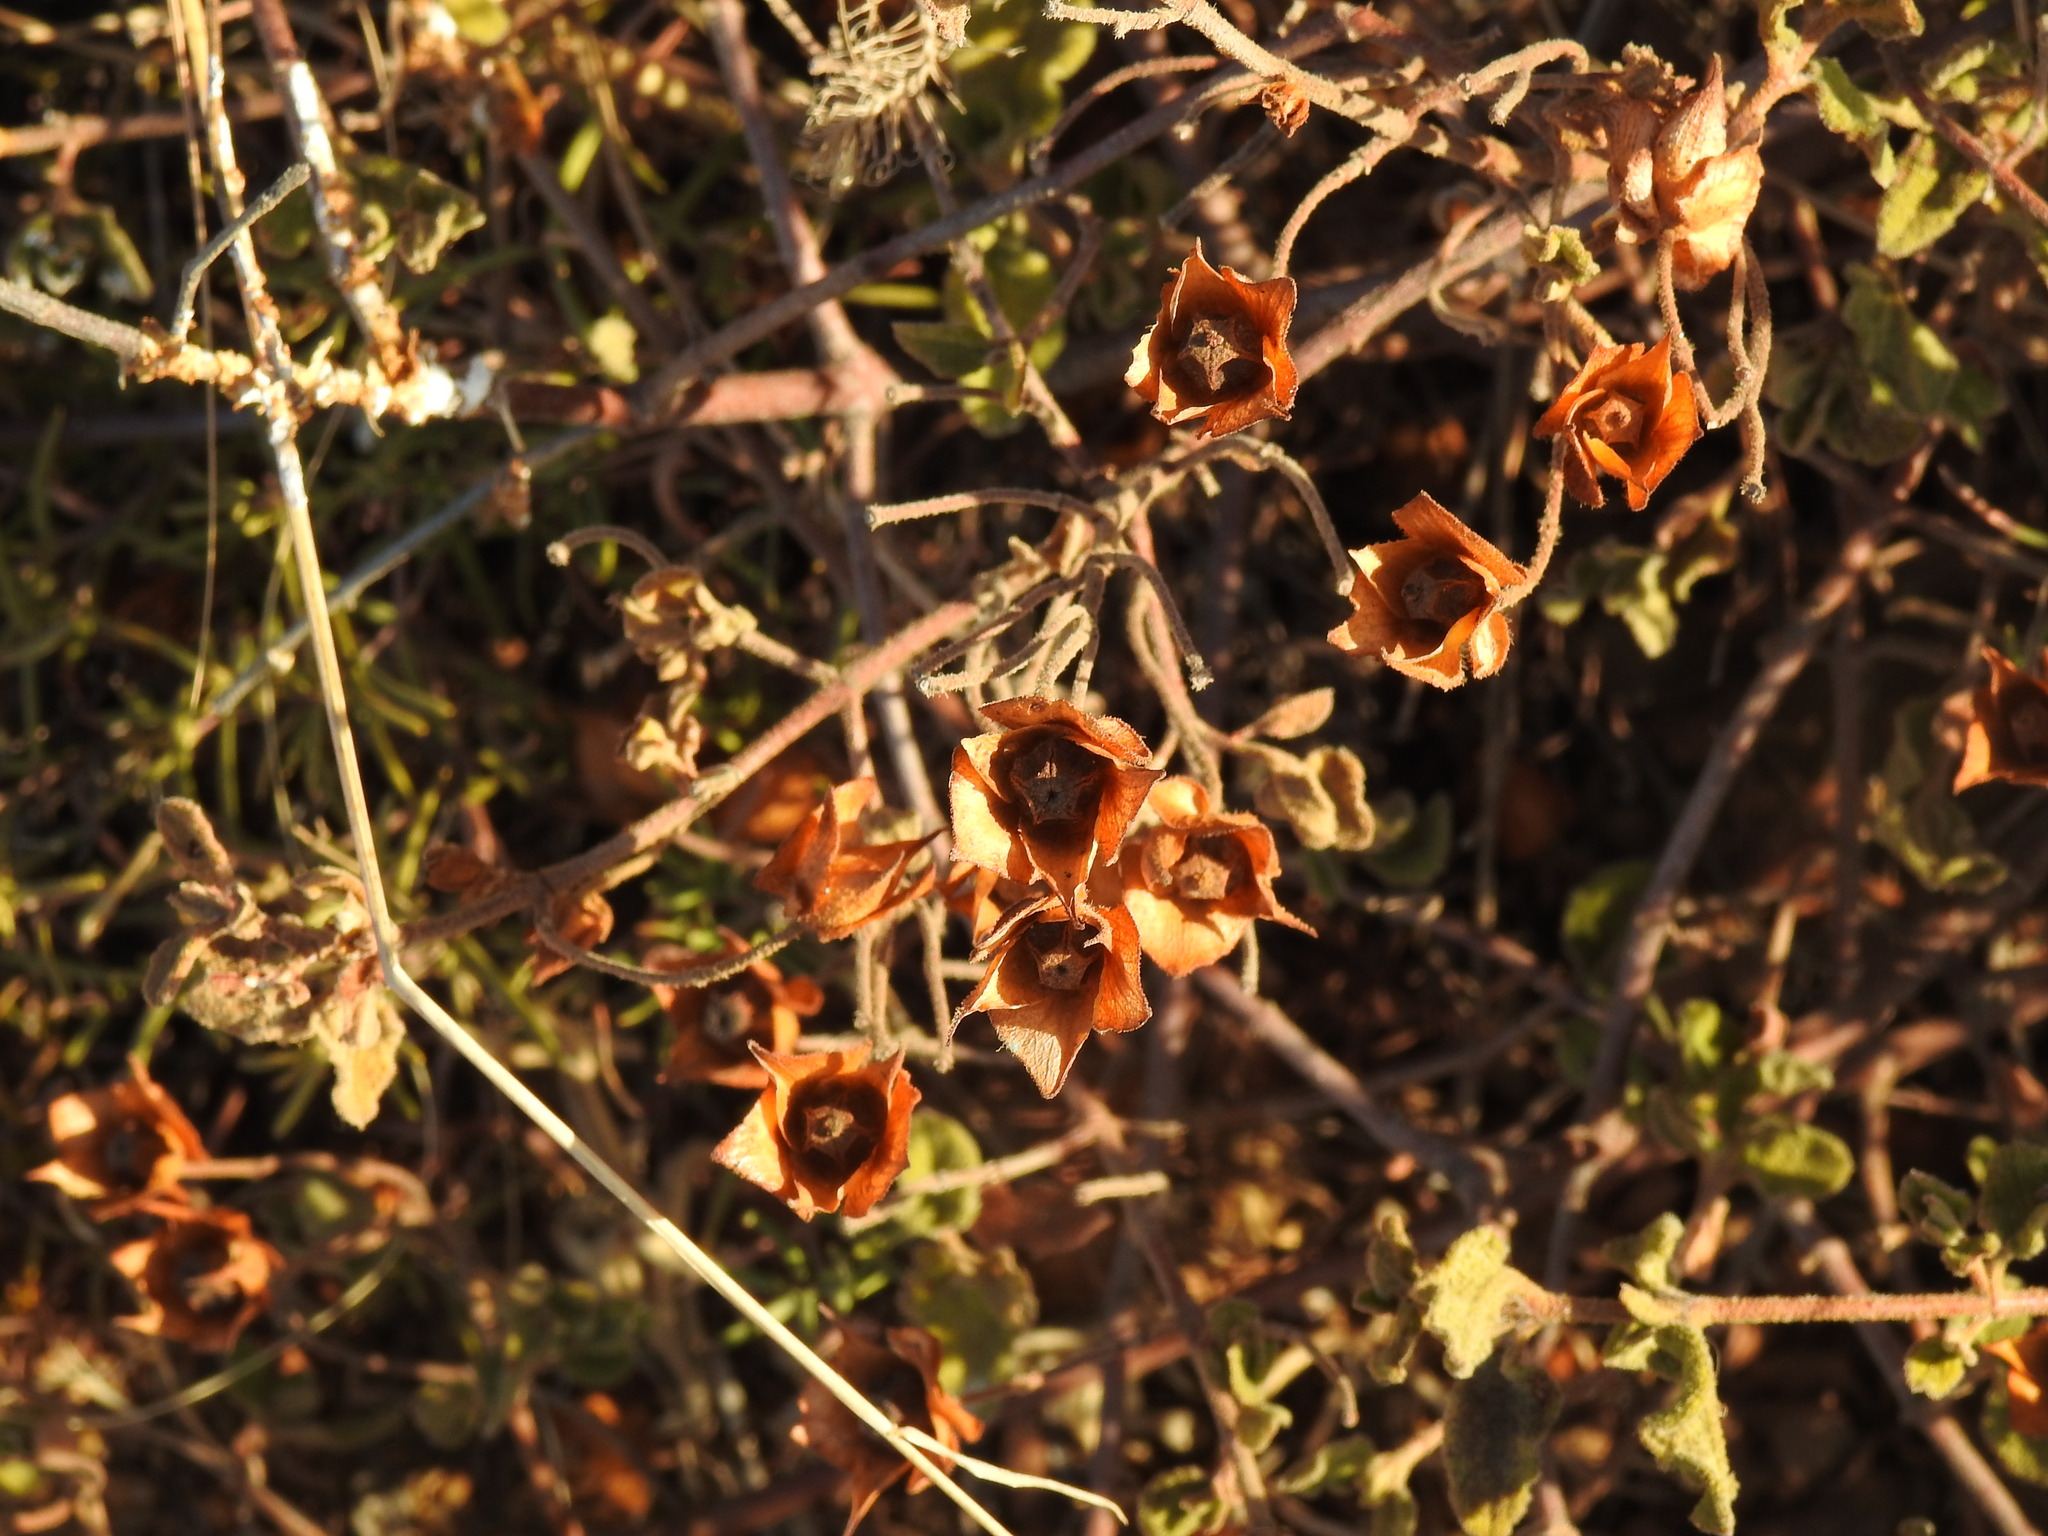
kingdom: Plantae
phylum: Tracheophyta
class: Magnoliopsida
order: Malvales
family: Cistaceae
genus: Cistus
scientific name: Cistus salviifolius
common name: Salvia cistus
